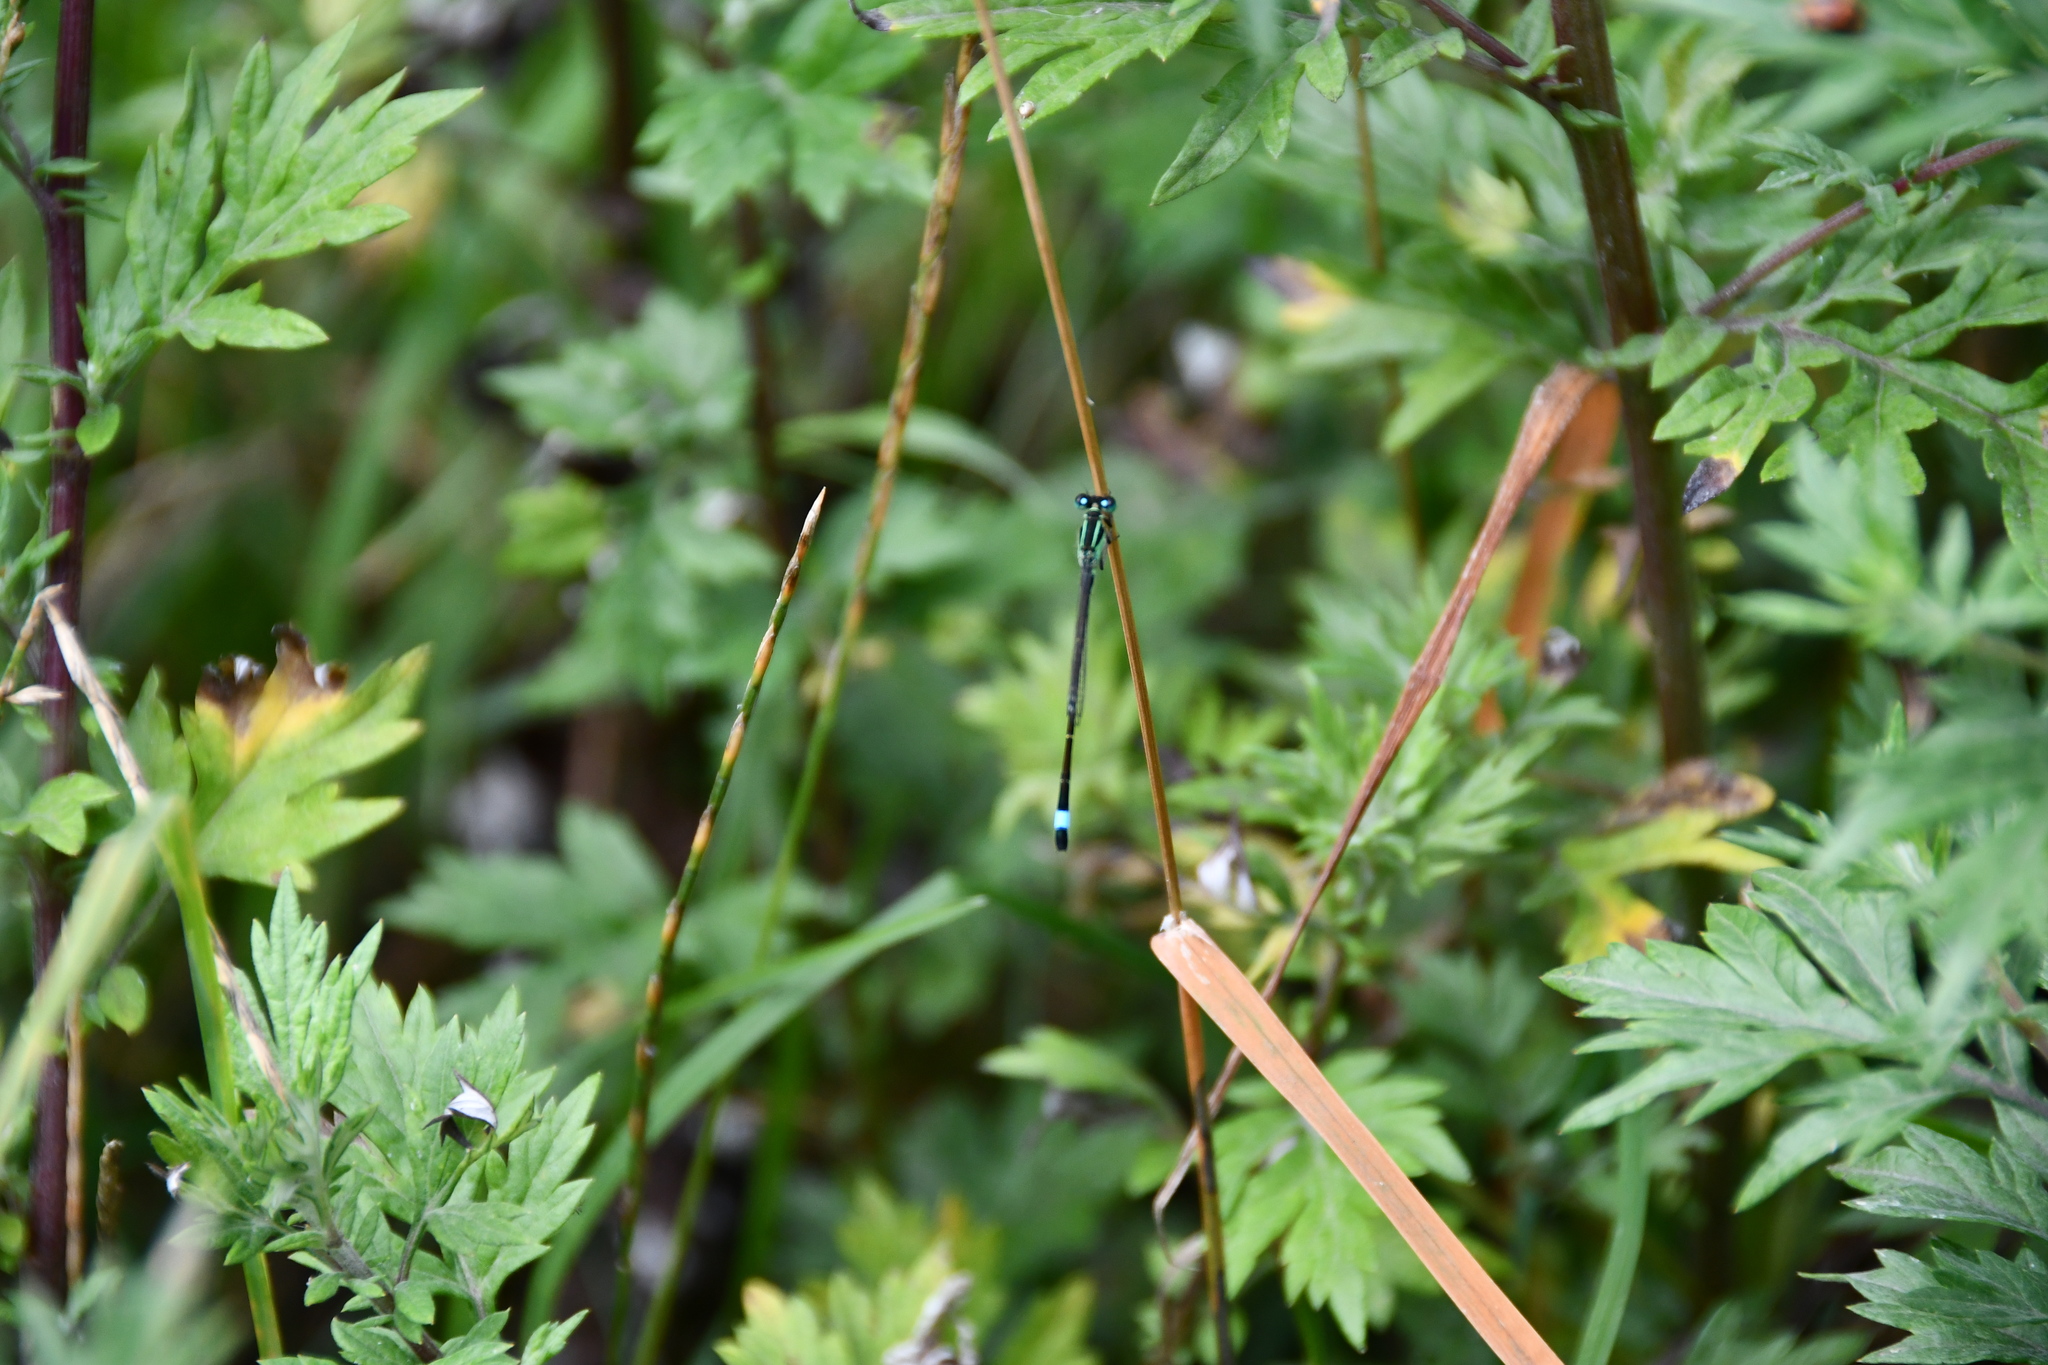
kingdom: Animalia
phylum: Arthropoda
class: Insecta
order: Odonata
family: Coenagrionidae
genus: Ischnura
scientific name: Ischnura elegans
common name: Blue-tailed damselfly
